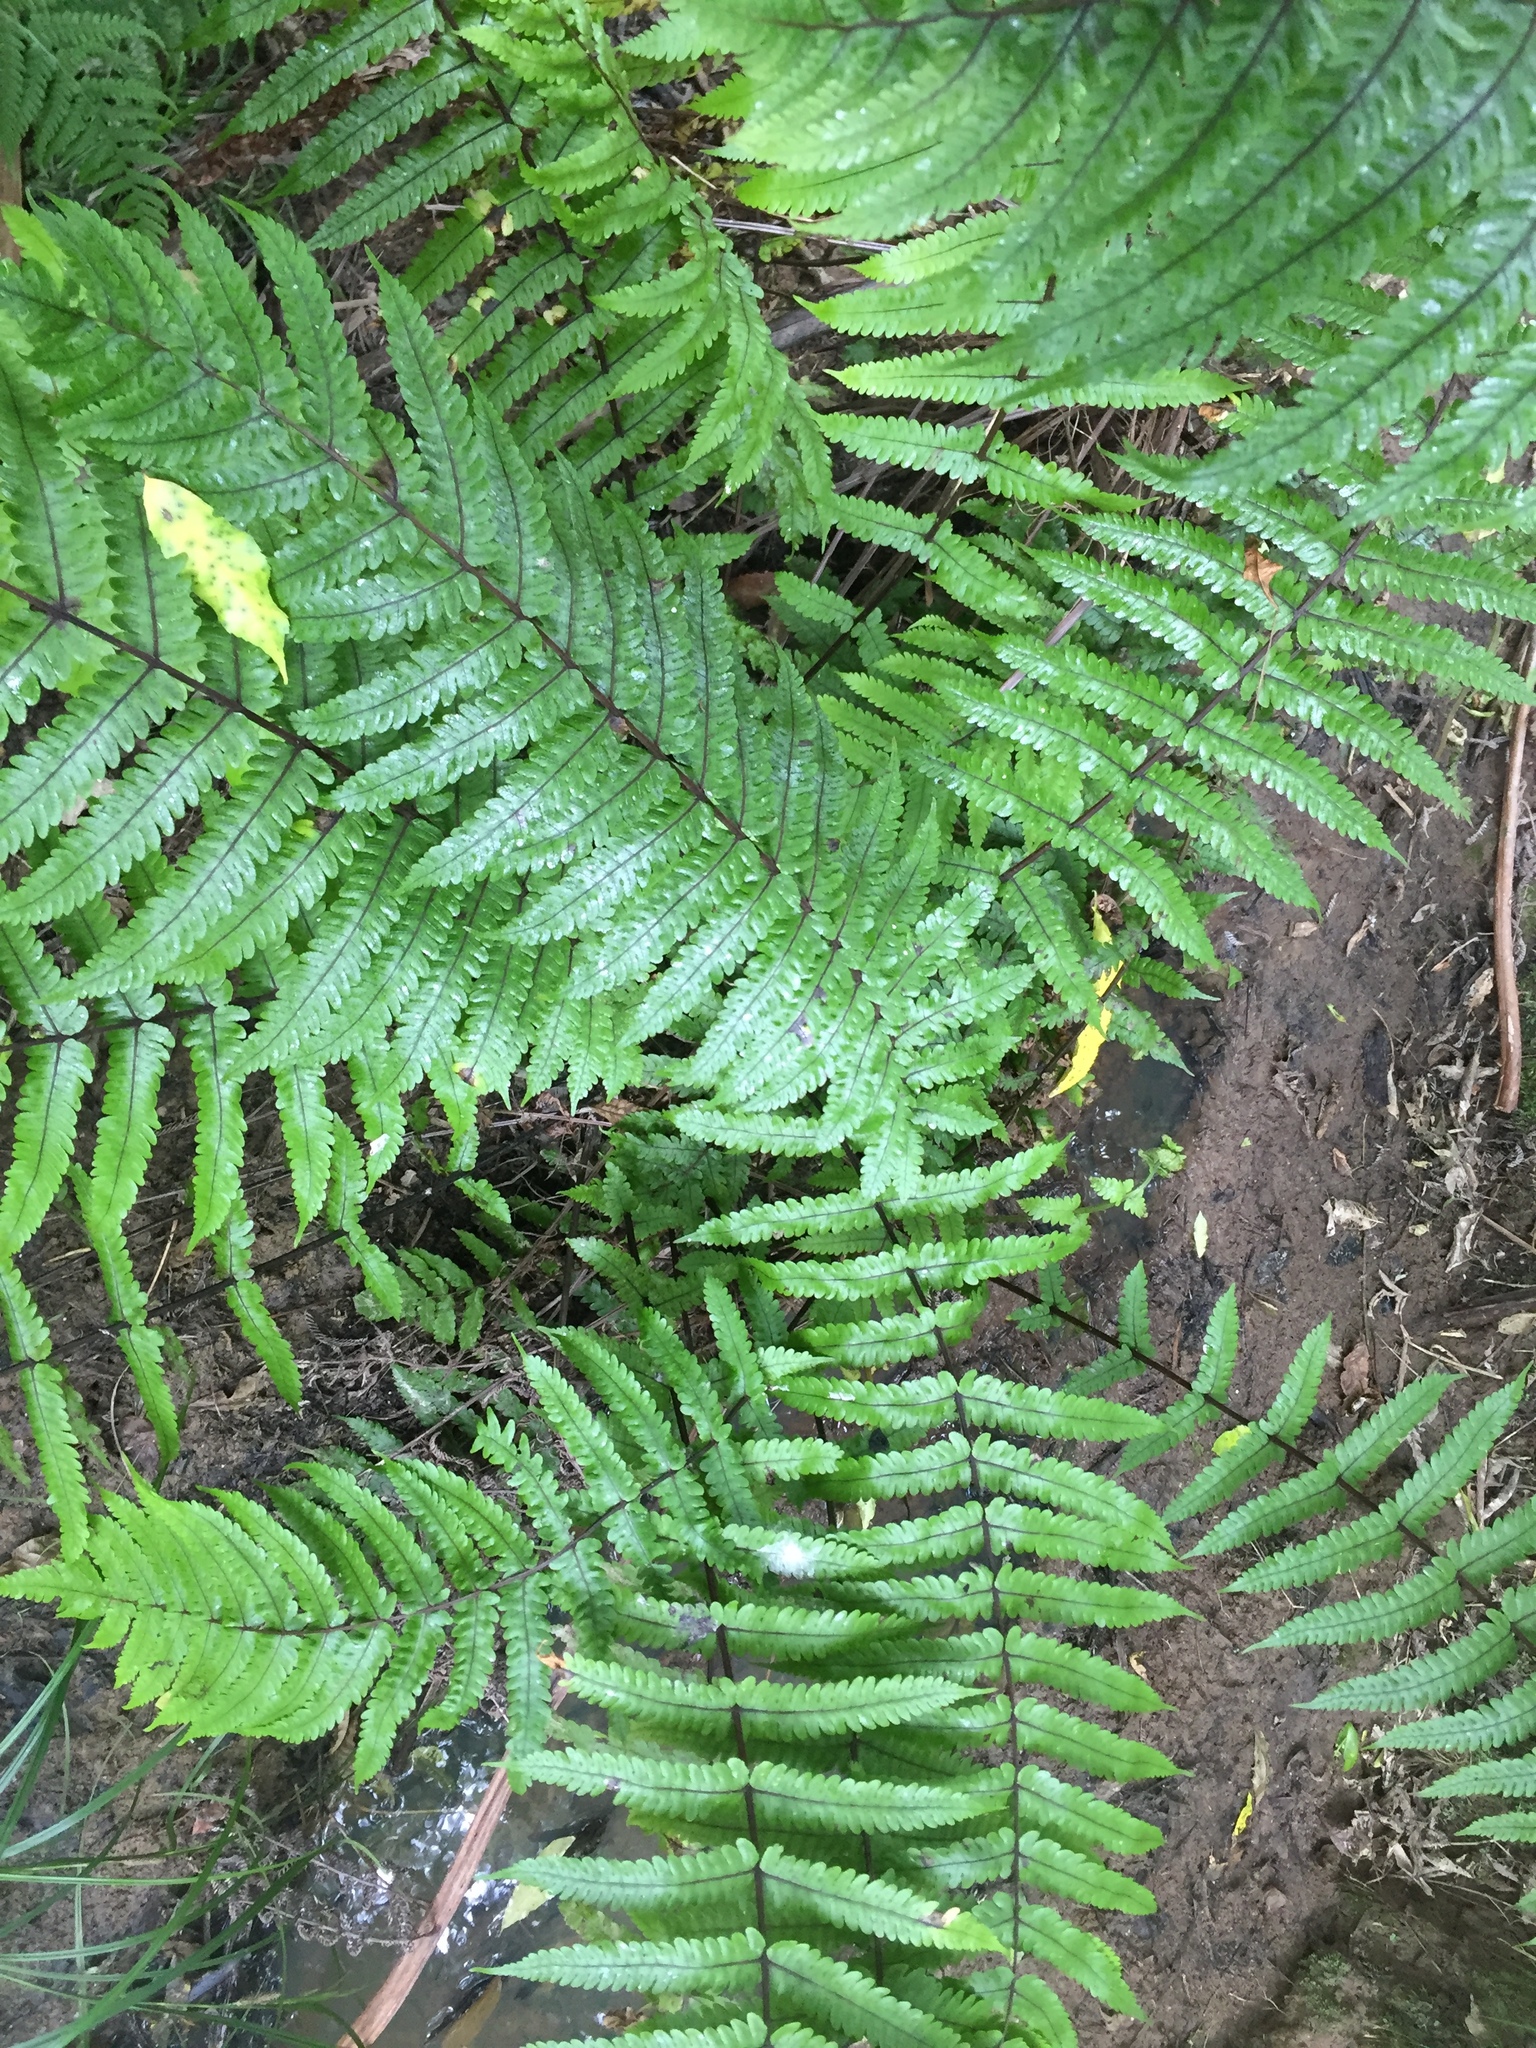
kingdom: Plantae
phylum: Tracheophyta
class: Polypodiopsida
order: Polypodiales
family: Thelypteridaceae
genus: Pakau
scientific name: Pakau pennigera
